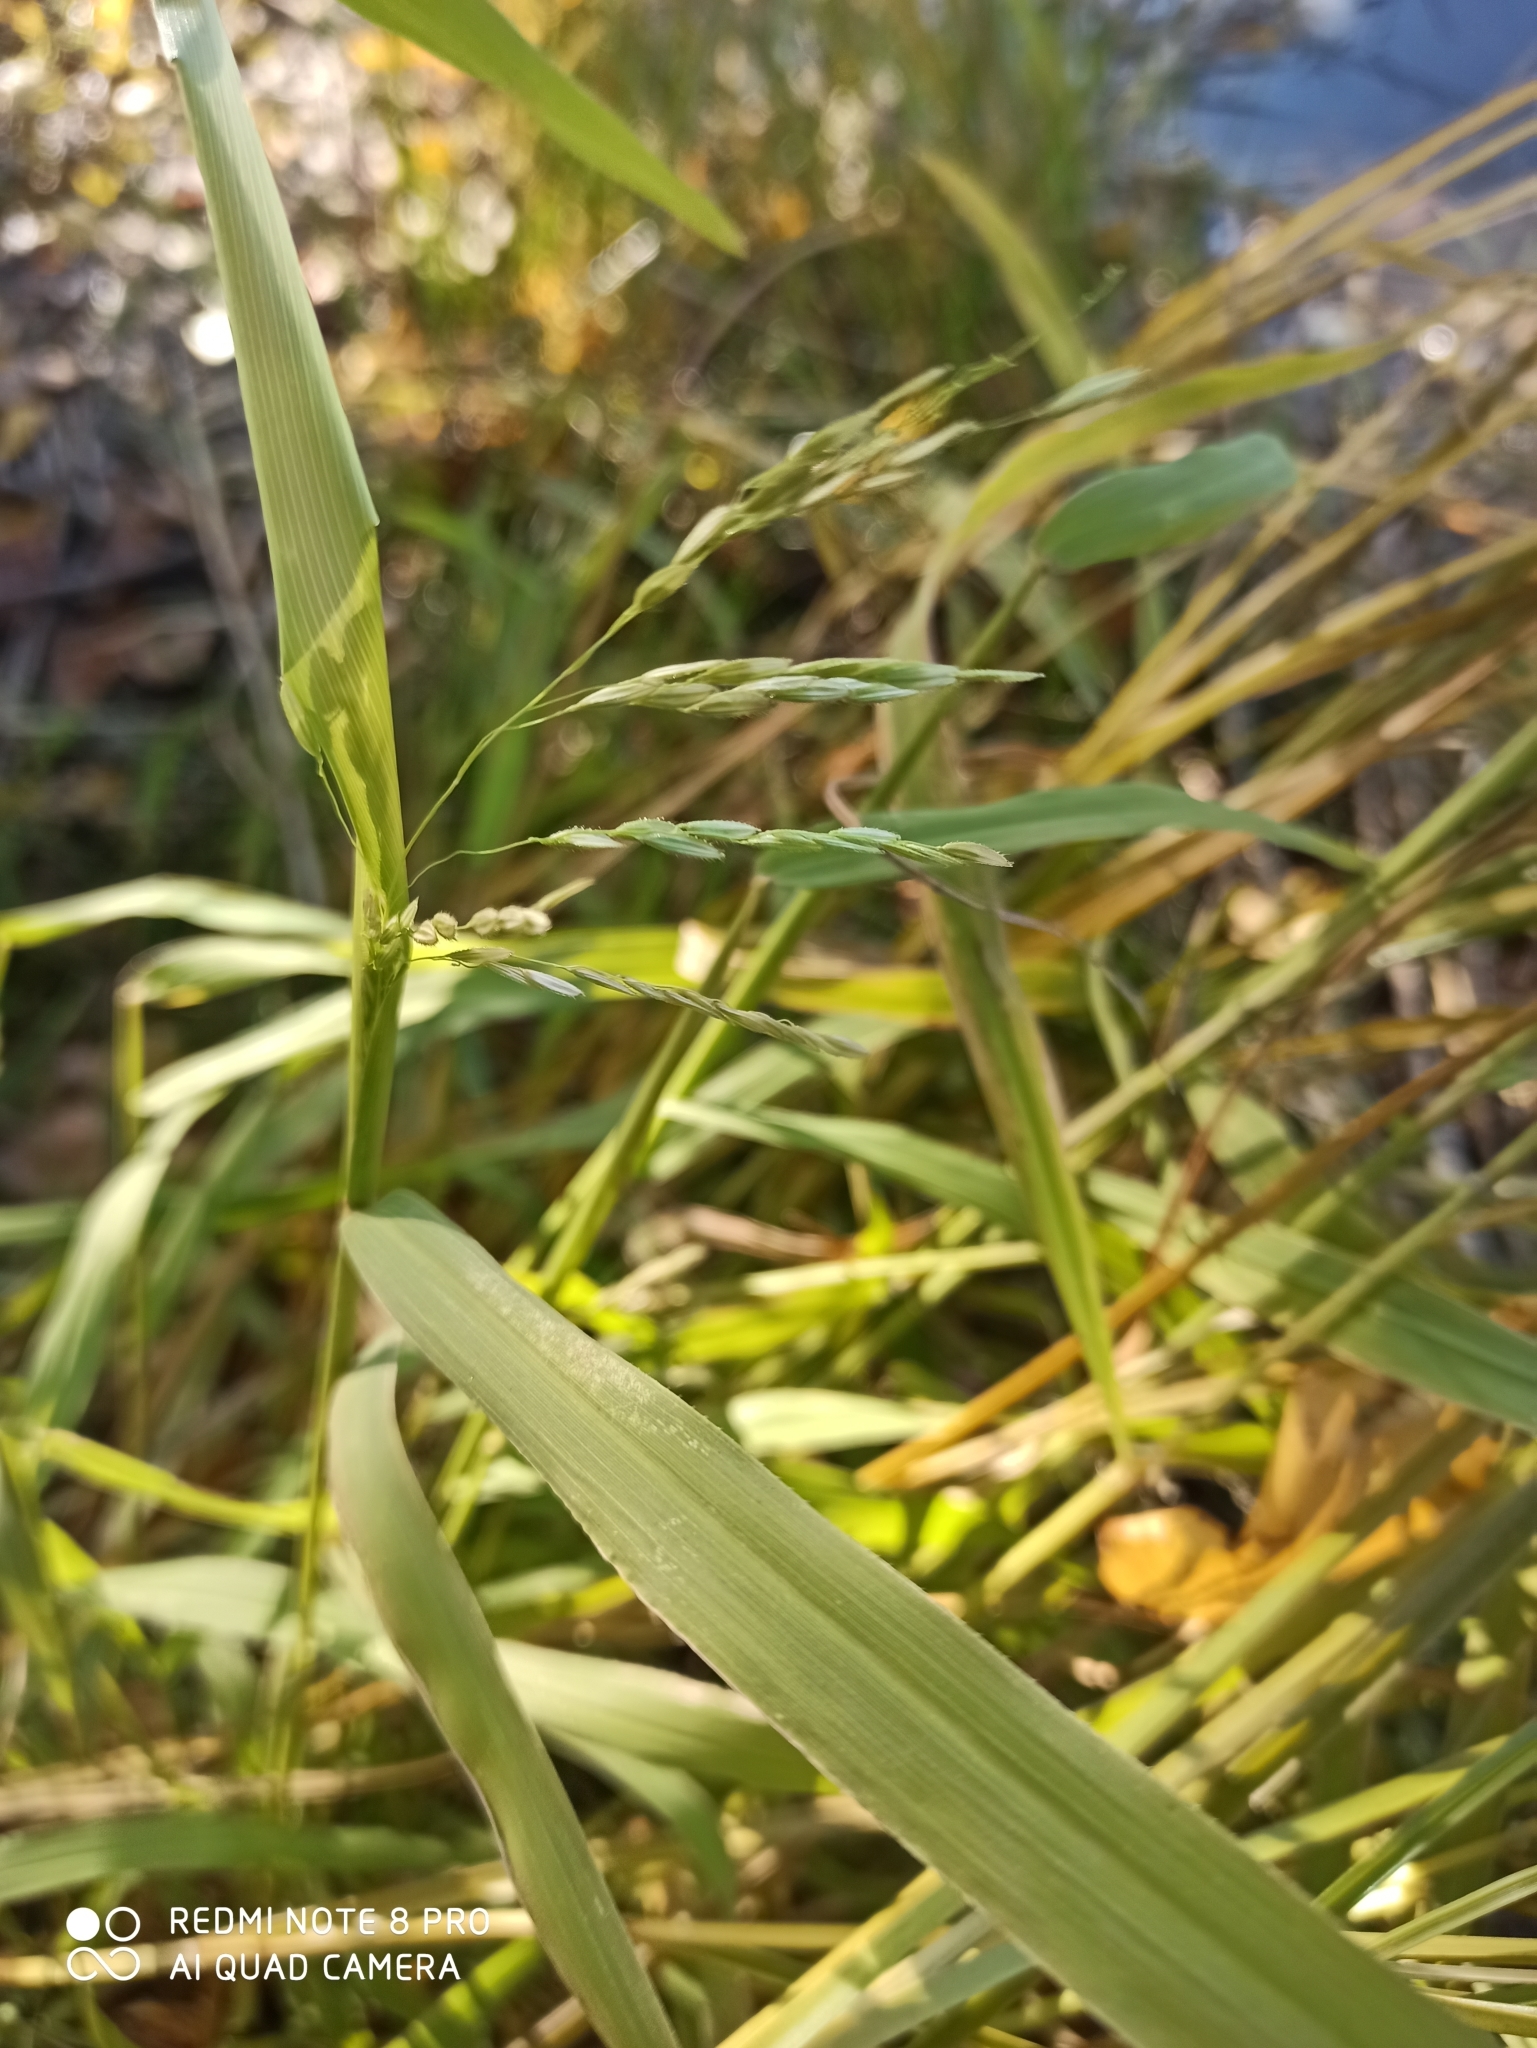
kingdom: Plantae
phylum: Tracheophyta
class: Liliopsida
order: Poales
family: Poaceae
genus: Leersia
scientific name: Leersia oryzoides
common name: Cut-grass
